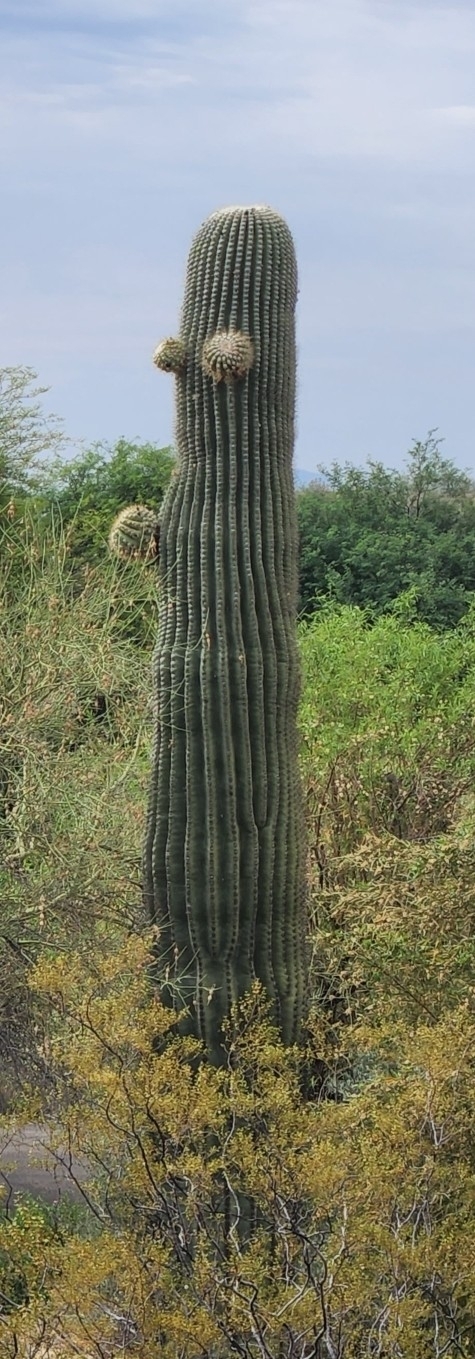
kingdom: Plantae
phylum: Tracheophyta
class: Magnoliopsida
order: Caryophyllales
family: Cactaceae
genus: Carnegiea
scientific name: Carnegiea gigantea
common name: Saguaro
